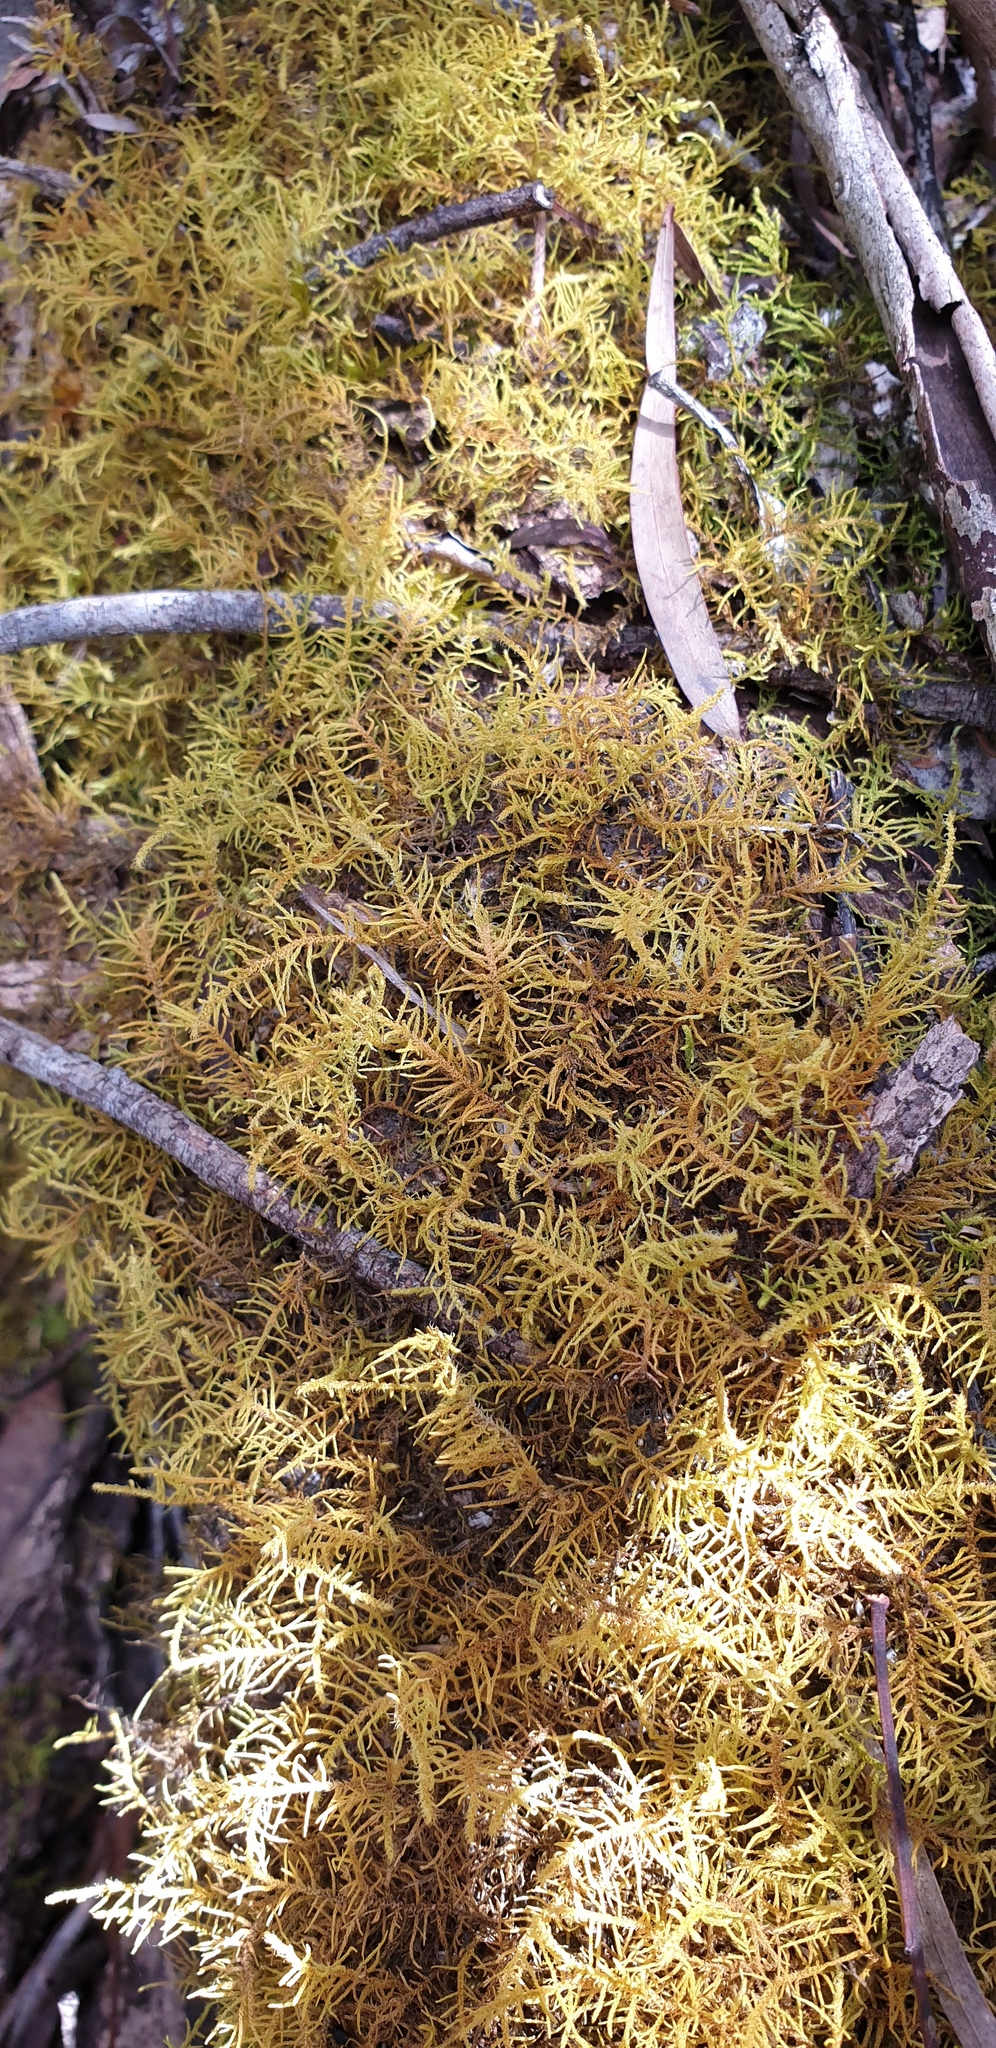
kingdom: Plantae
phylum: Bryophyta
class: Bryopsida
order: Hypnales
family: Thuidiaceae
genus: Thuidiopsis
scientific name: Thuidiopsis sparsa
